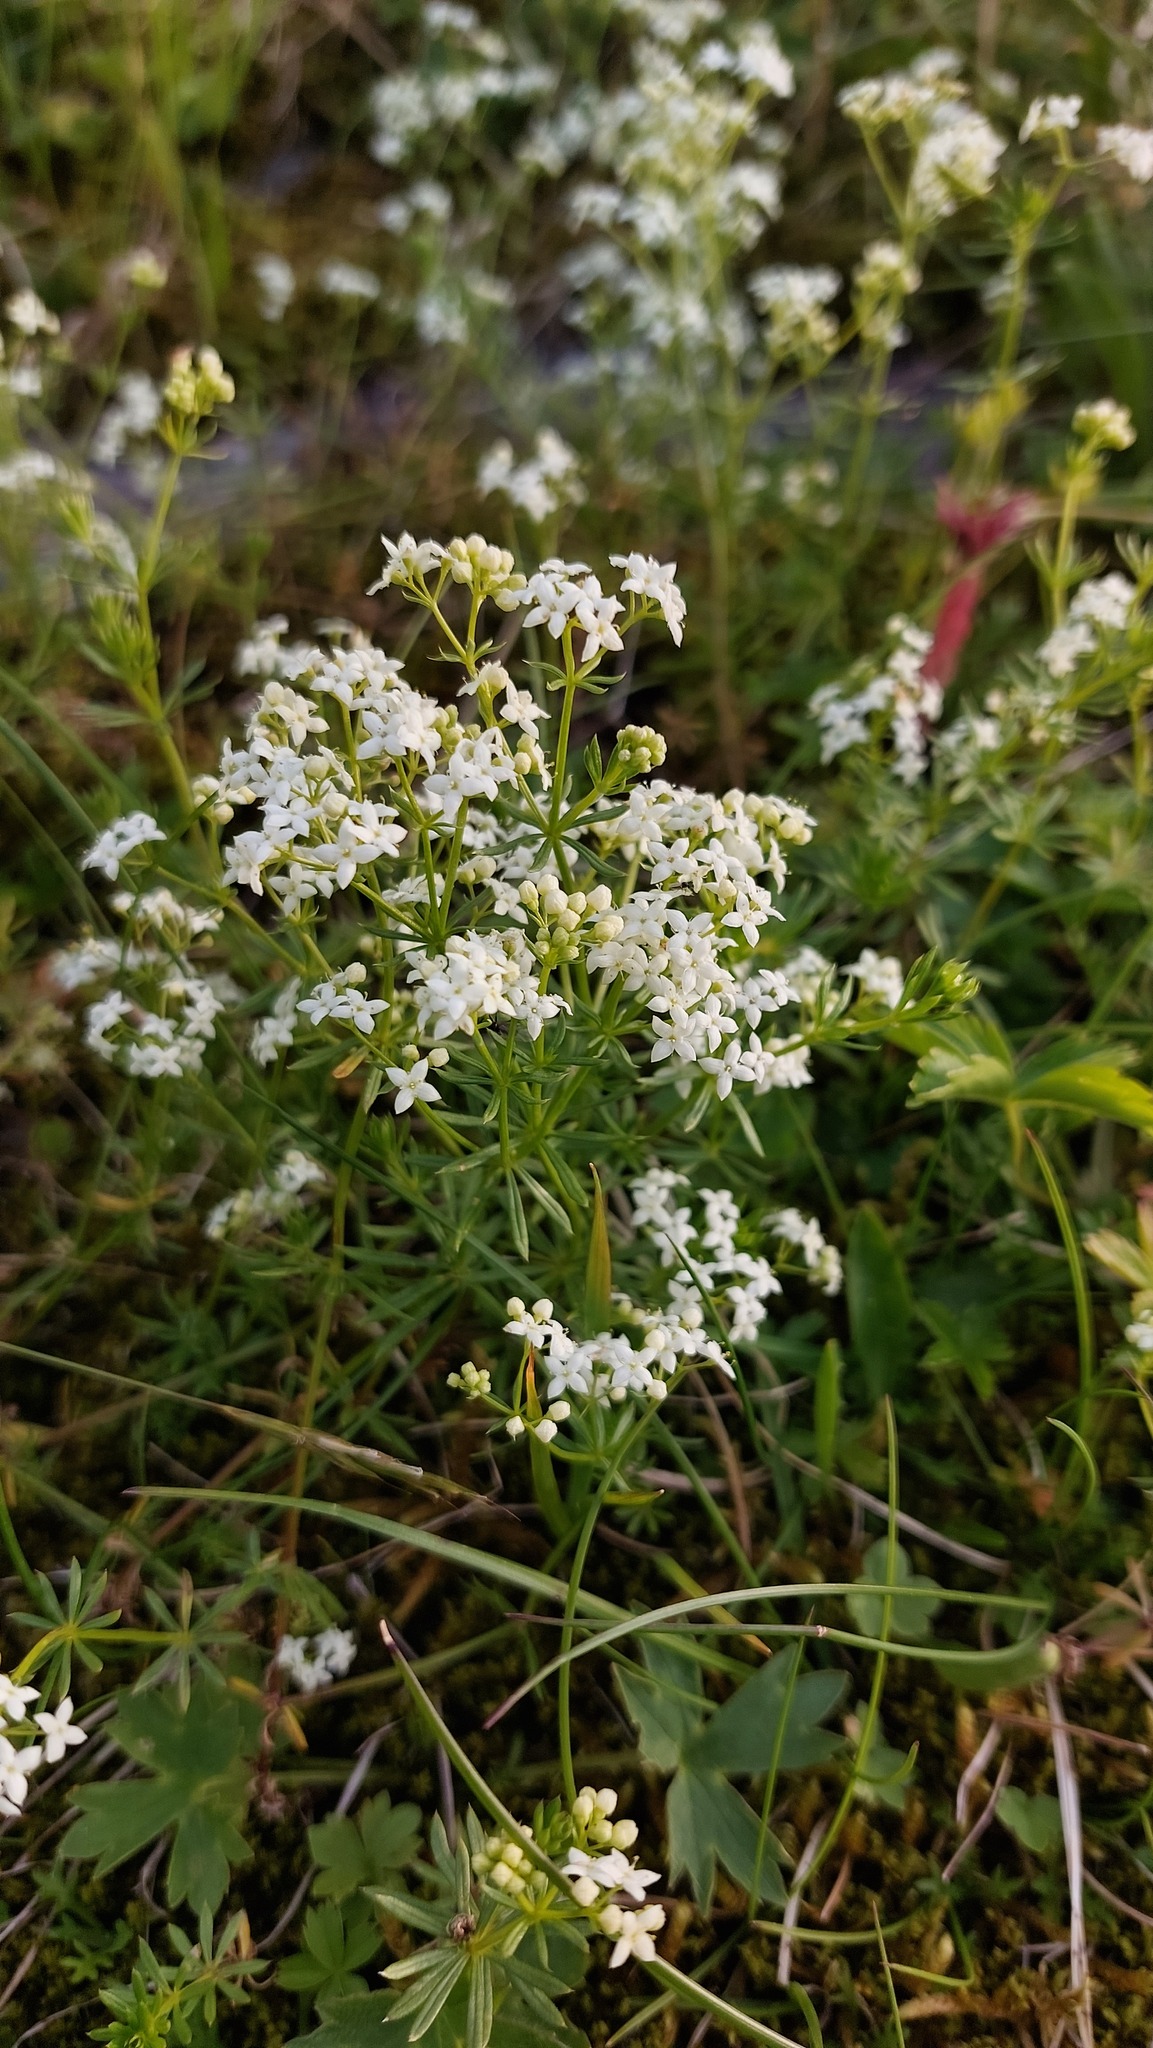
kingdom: Plantae
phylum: Tracheophyta
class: Magnoliopsida
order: Gentianales
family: Rubiaceae
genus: Galium
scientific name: Galium anisophyllon
